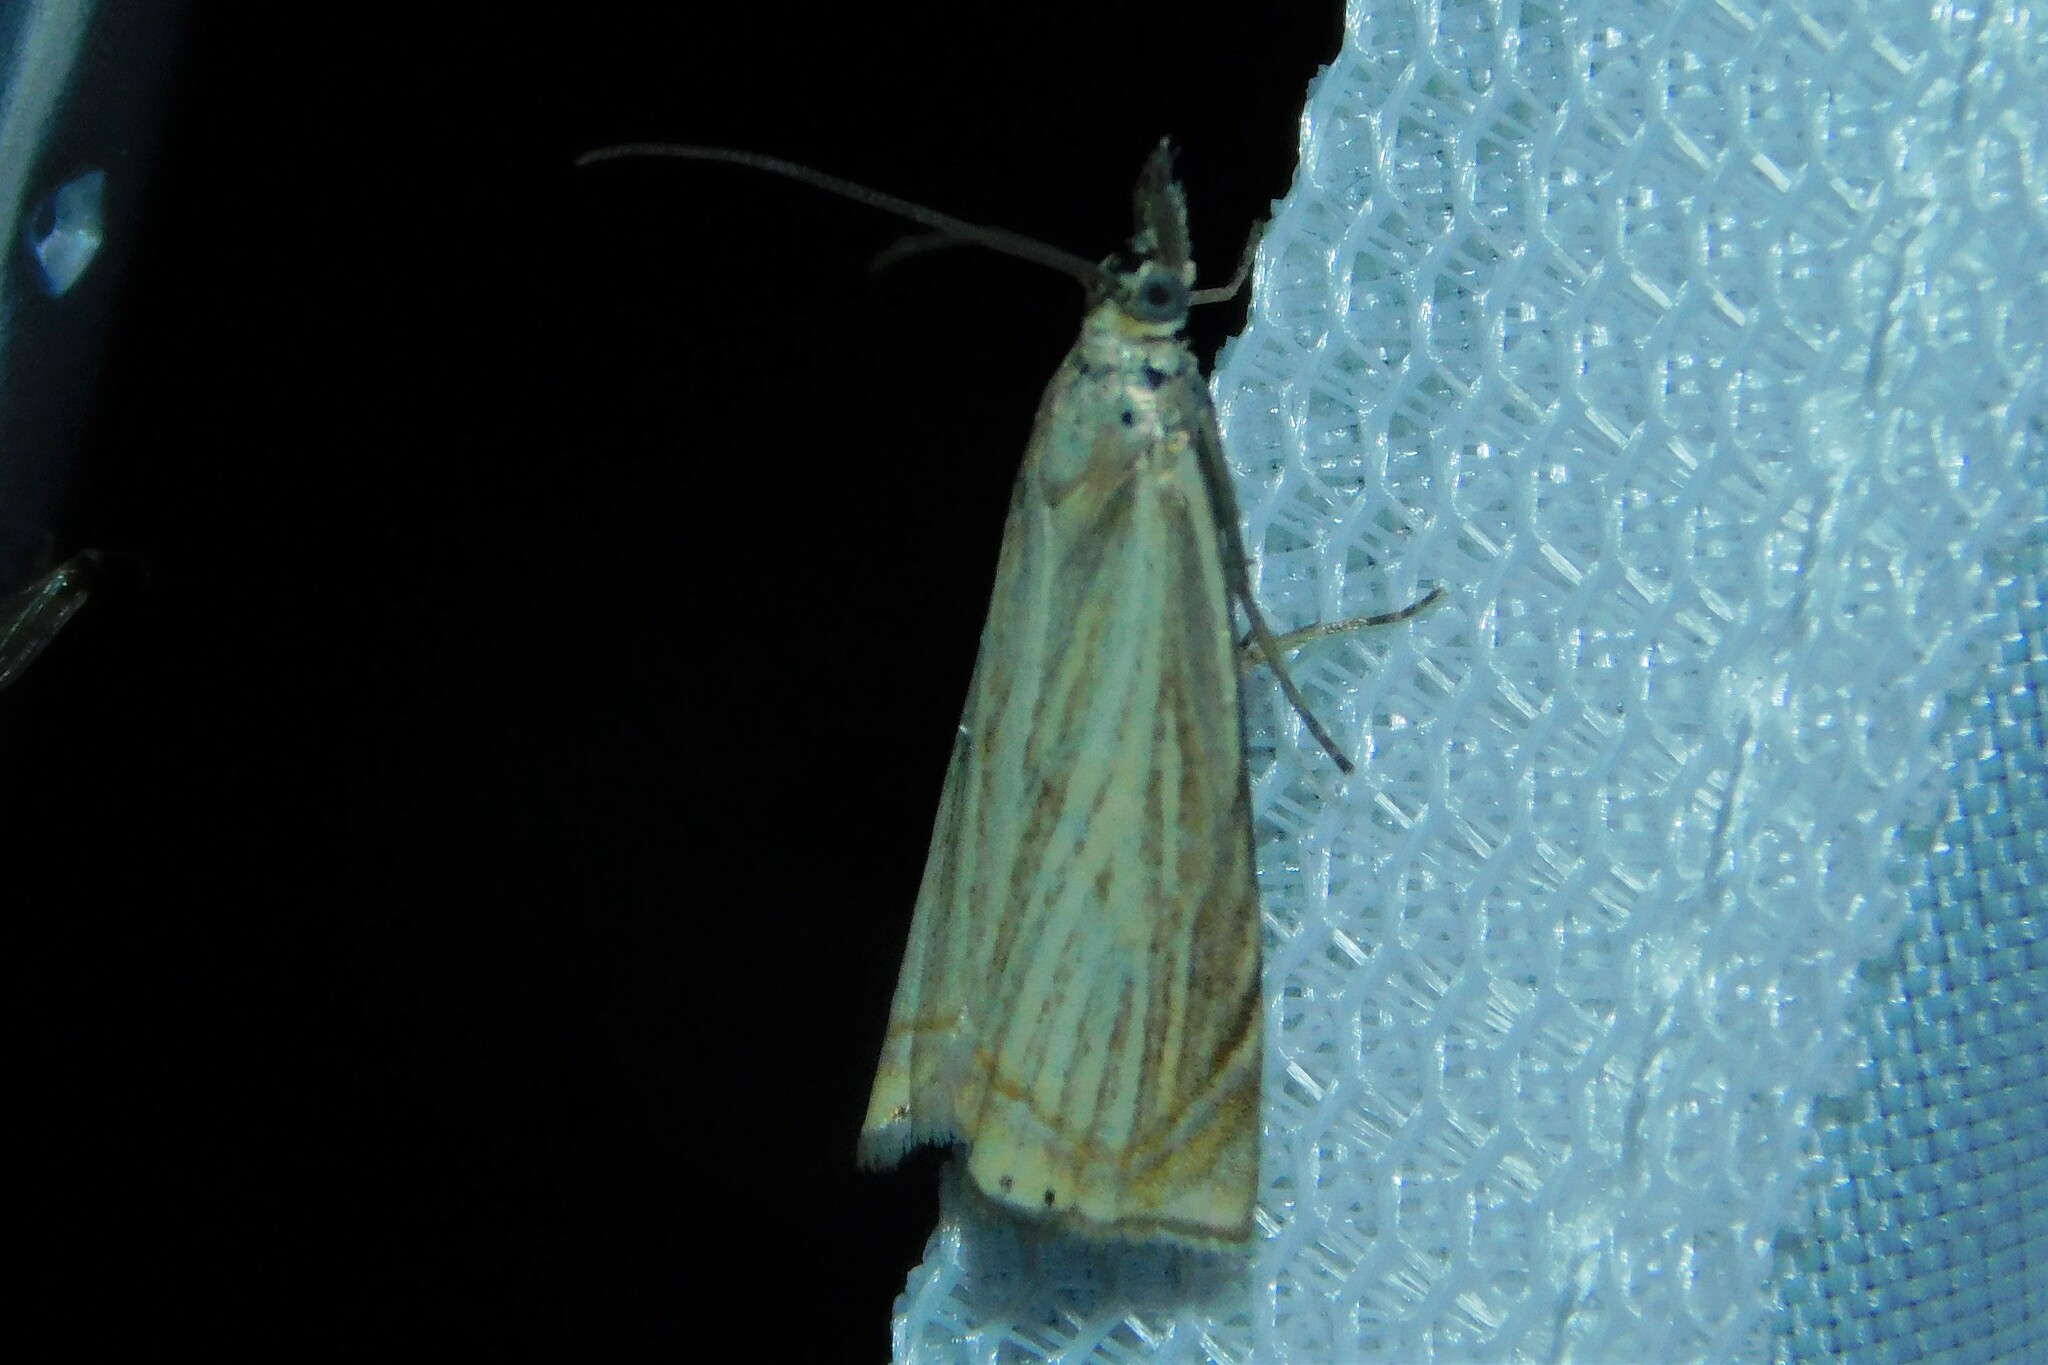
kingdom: Animalia
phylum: Arthropoda
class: Insecta
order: Lepidoptera
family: Crambidae
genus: Chrysoteuchia
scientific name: Chrysoteuchia culmella
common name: Garden grass-veneer
